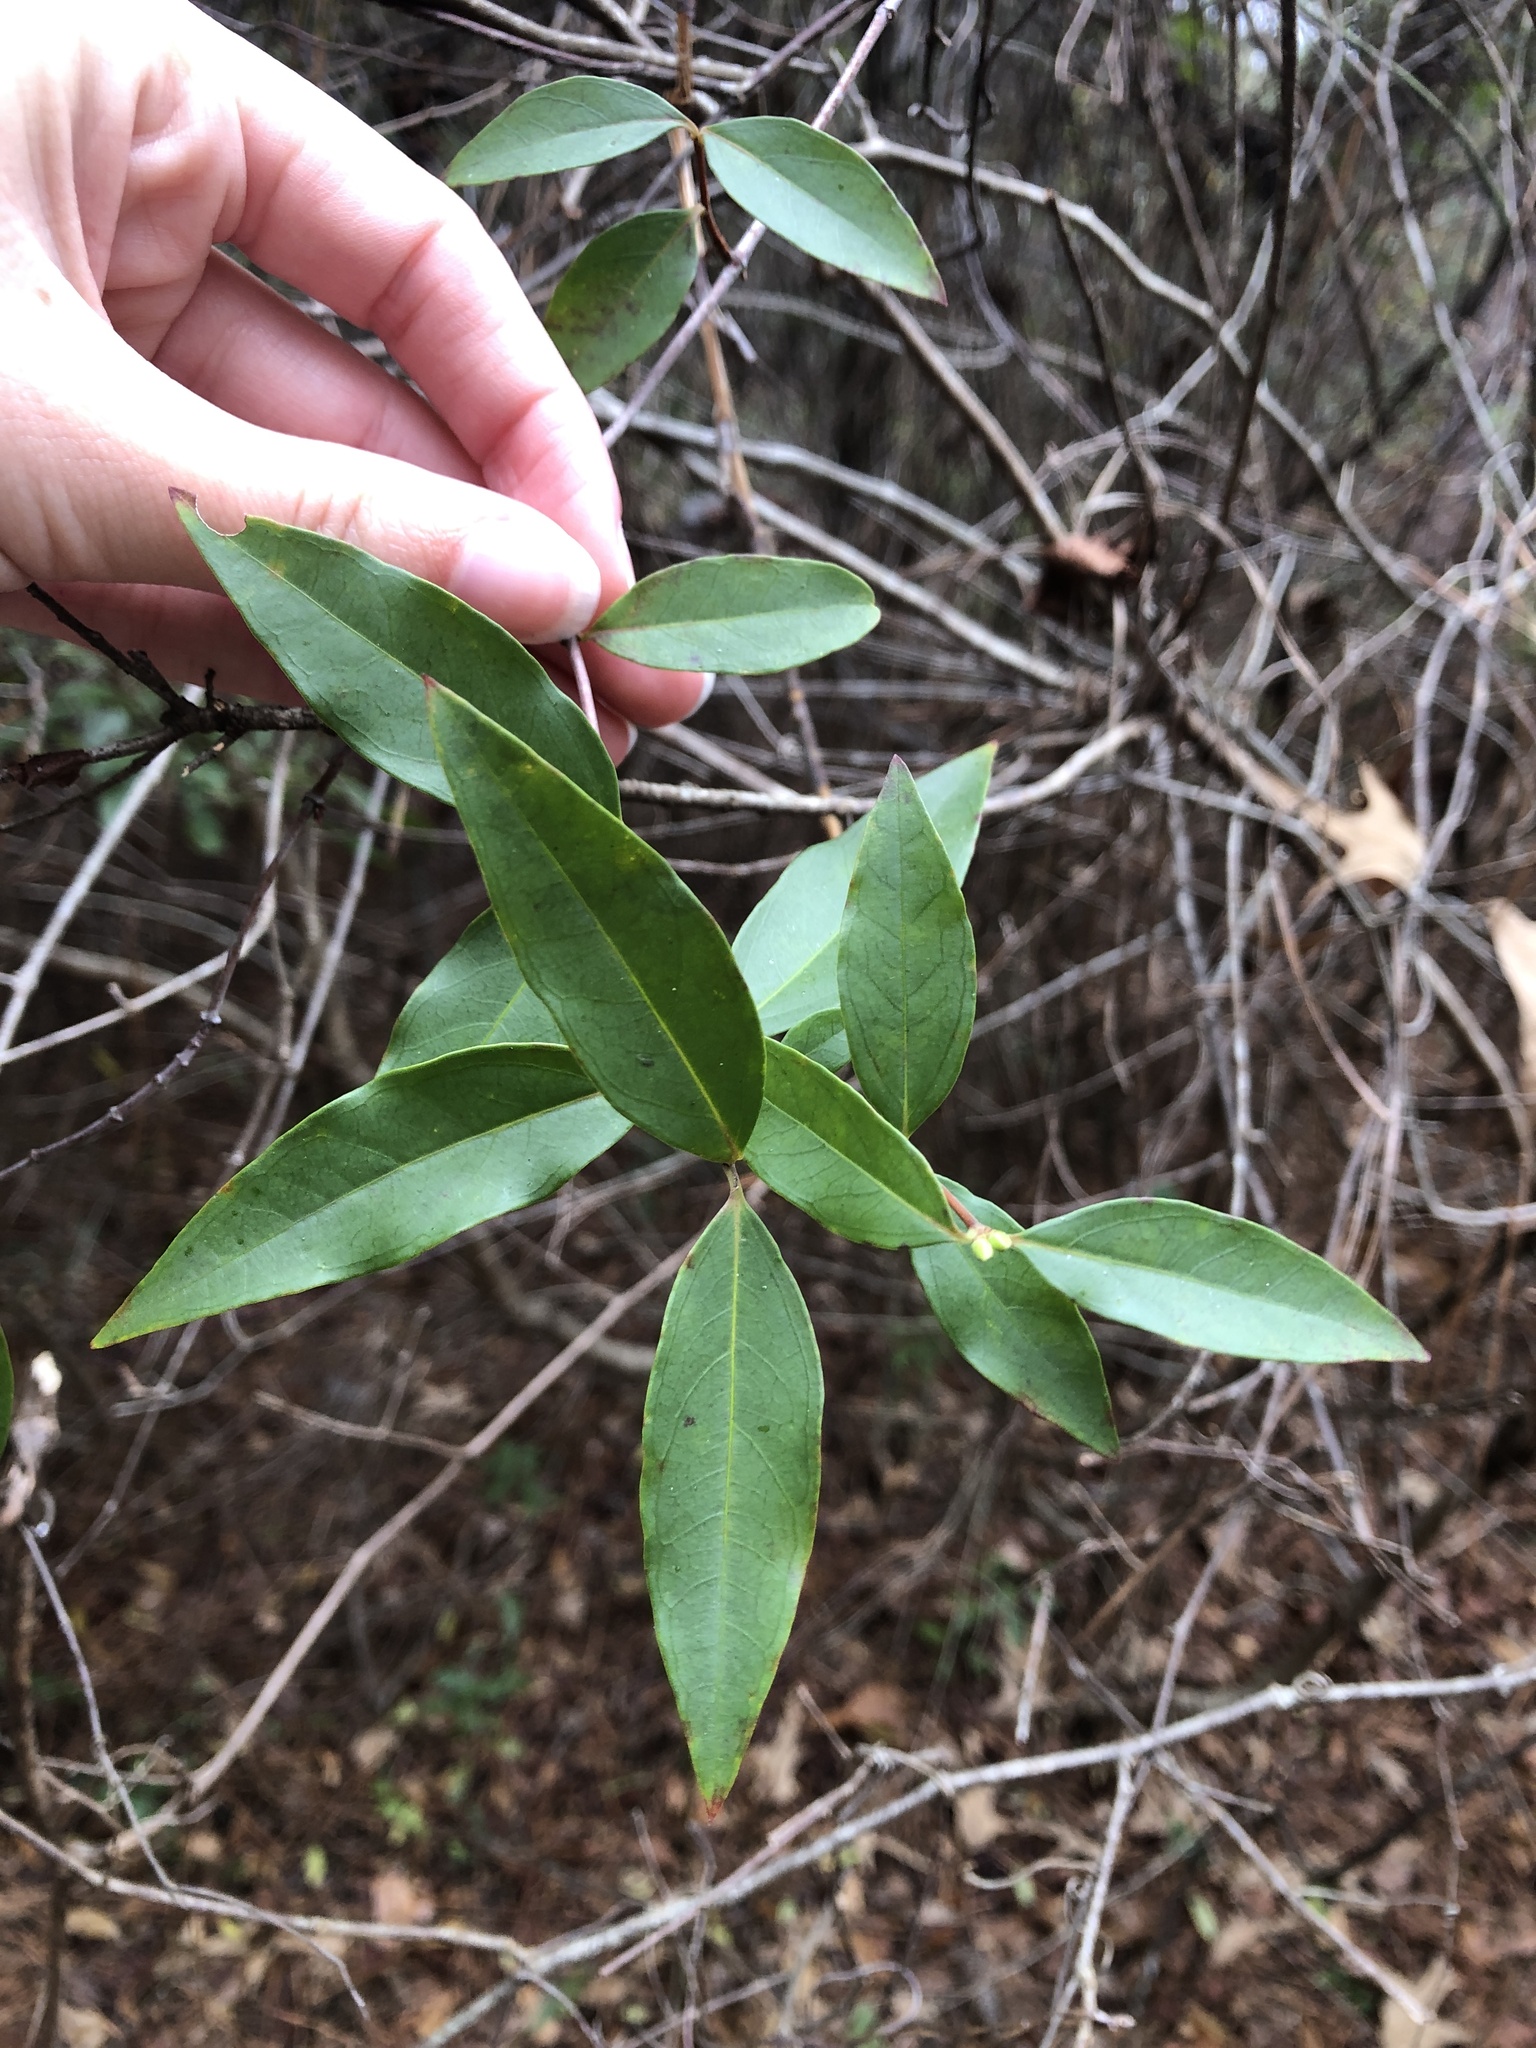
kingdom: Plantae
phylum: Tracheophyta
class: Magnoliopsida
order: Gentianales
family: Gelsemiaceae
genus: Gelsemium
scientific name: Gelsemium sempervirens
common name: Carolina-jasmine
